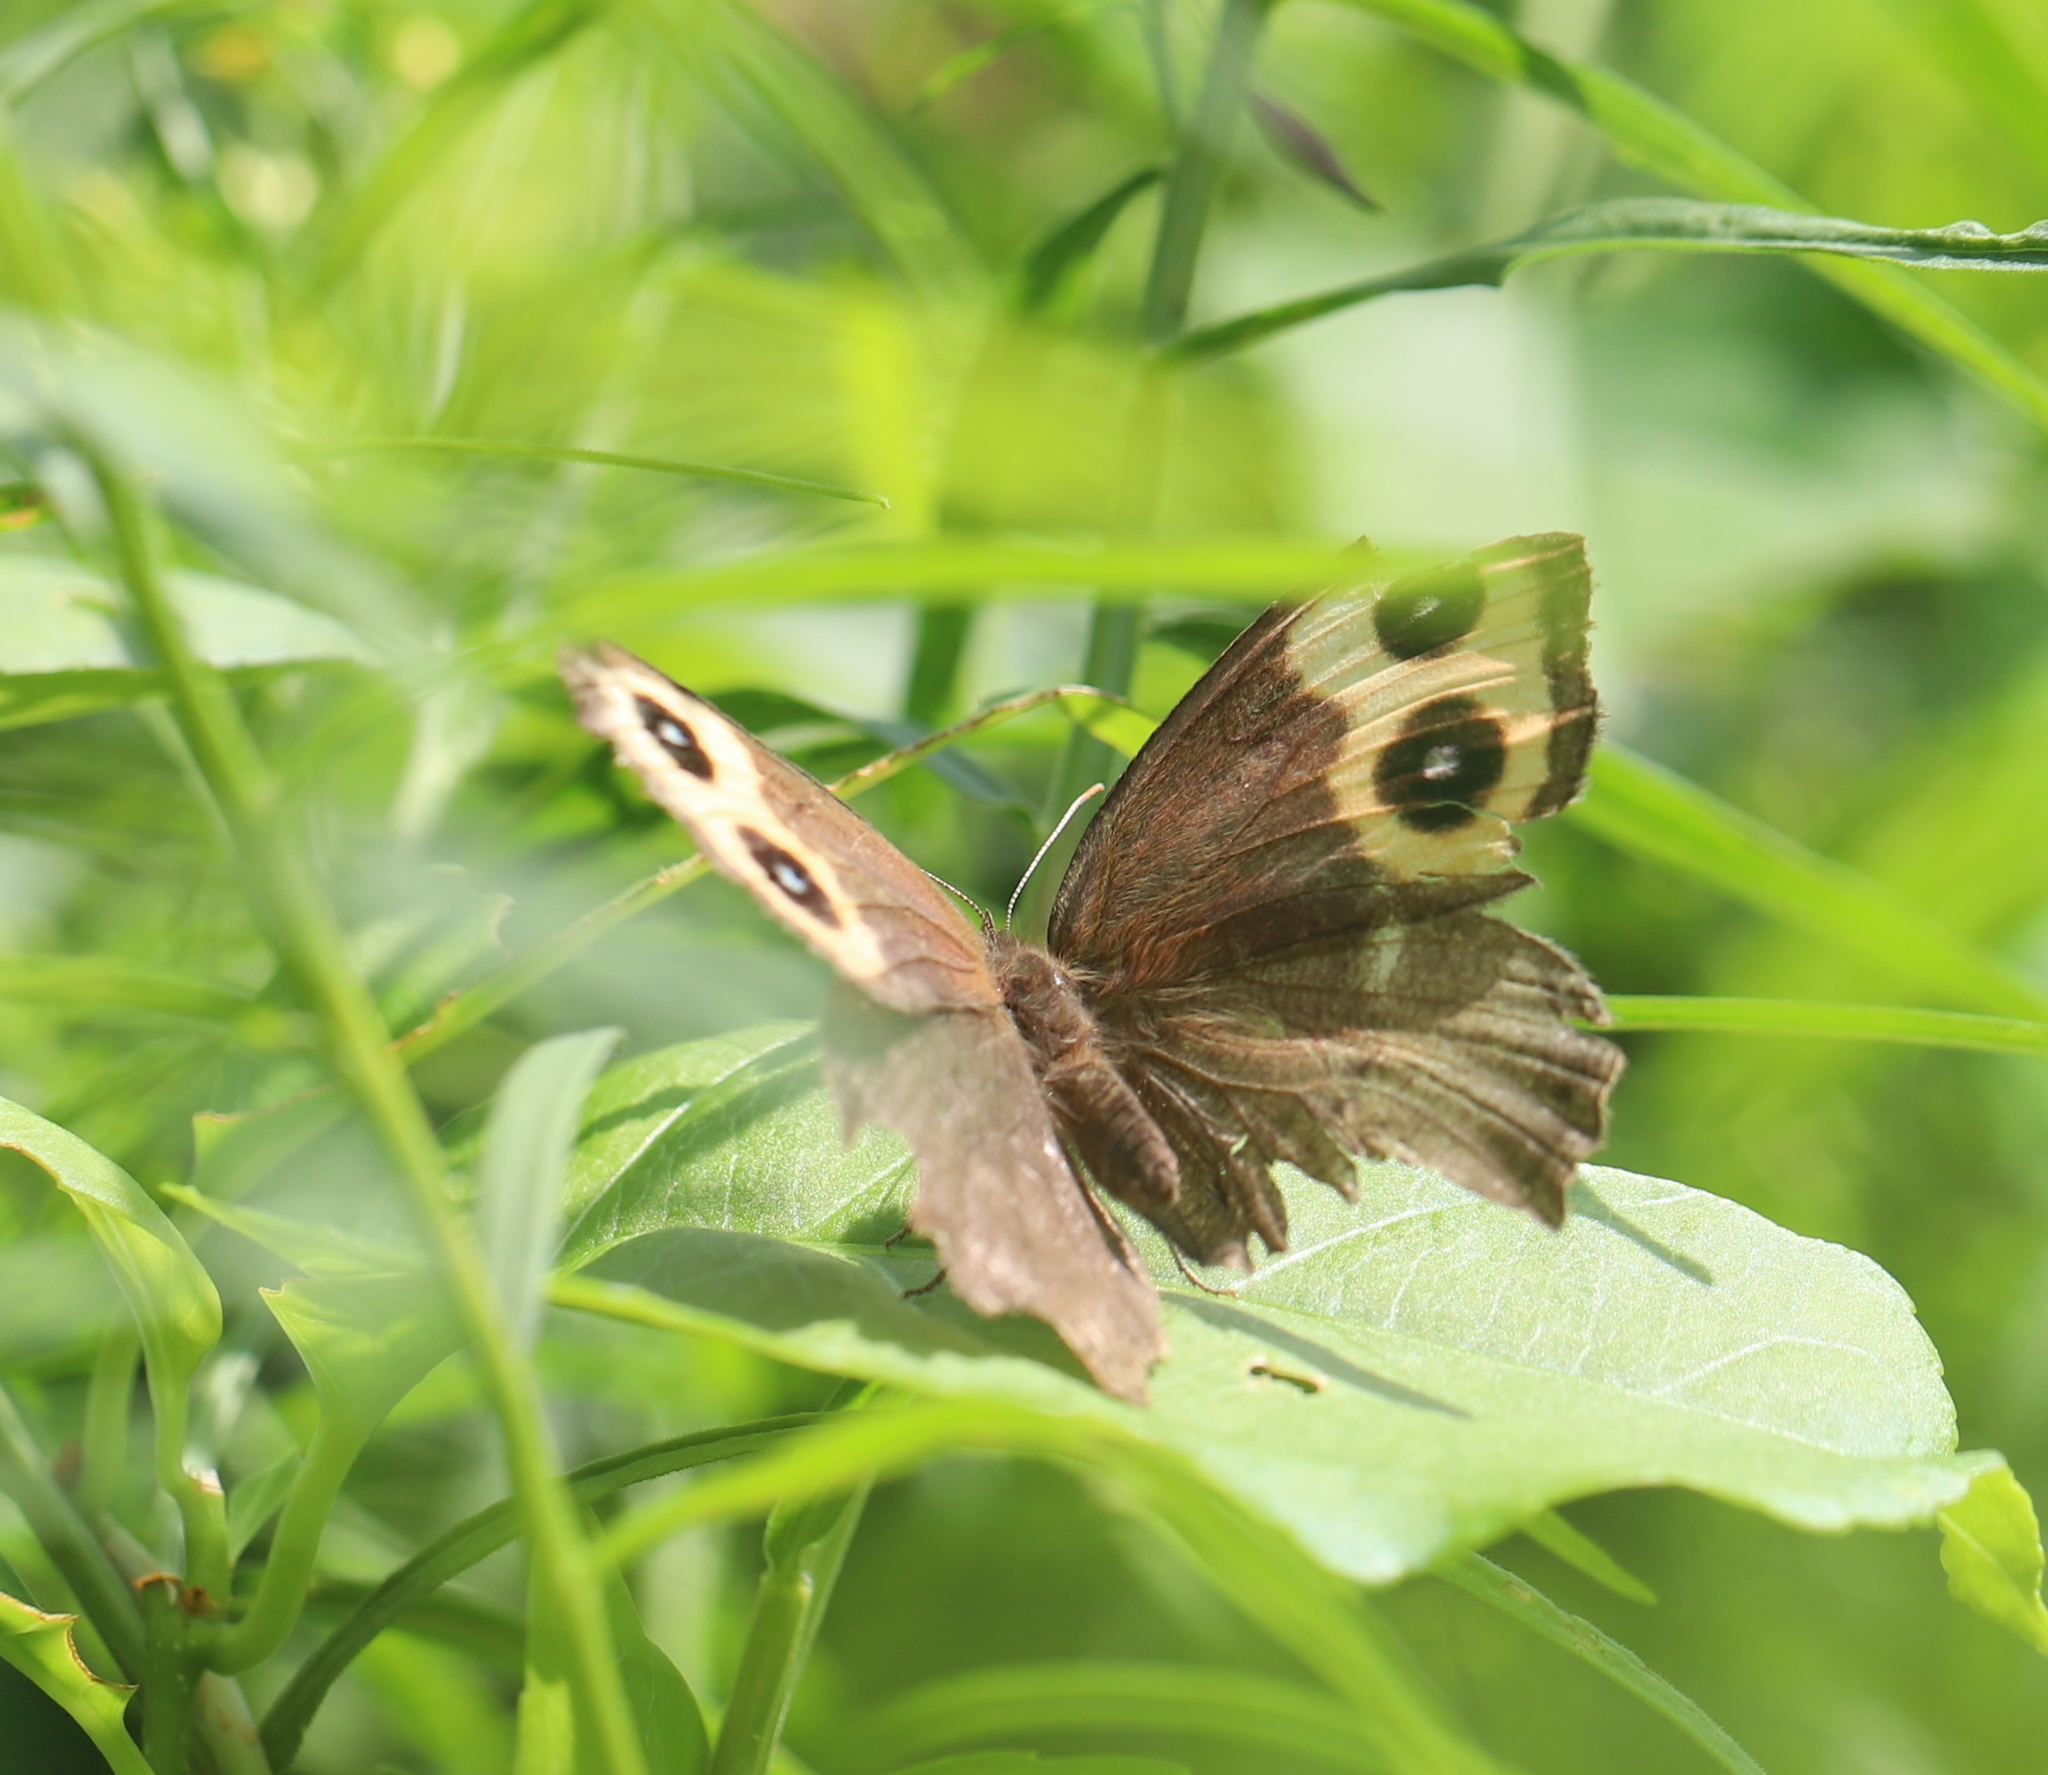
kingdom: Animalia
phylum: Arthropoda
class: Insecta
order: Lepidoptera
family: Nymphalidae
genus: Cercyonis
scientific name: Cercyonis pegala
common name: Common wood-nymph
